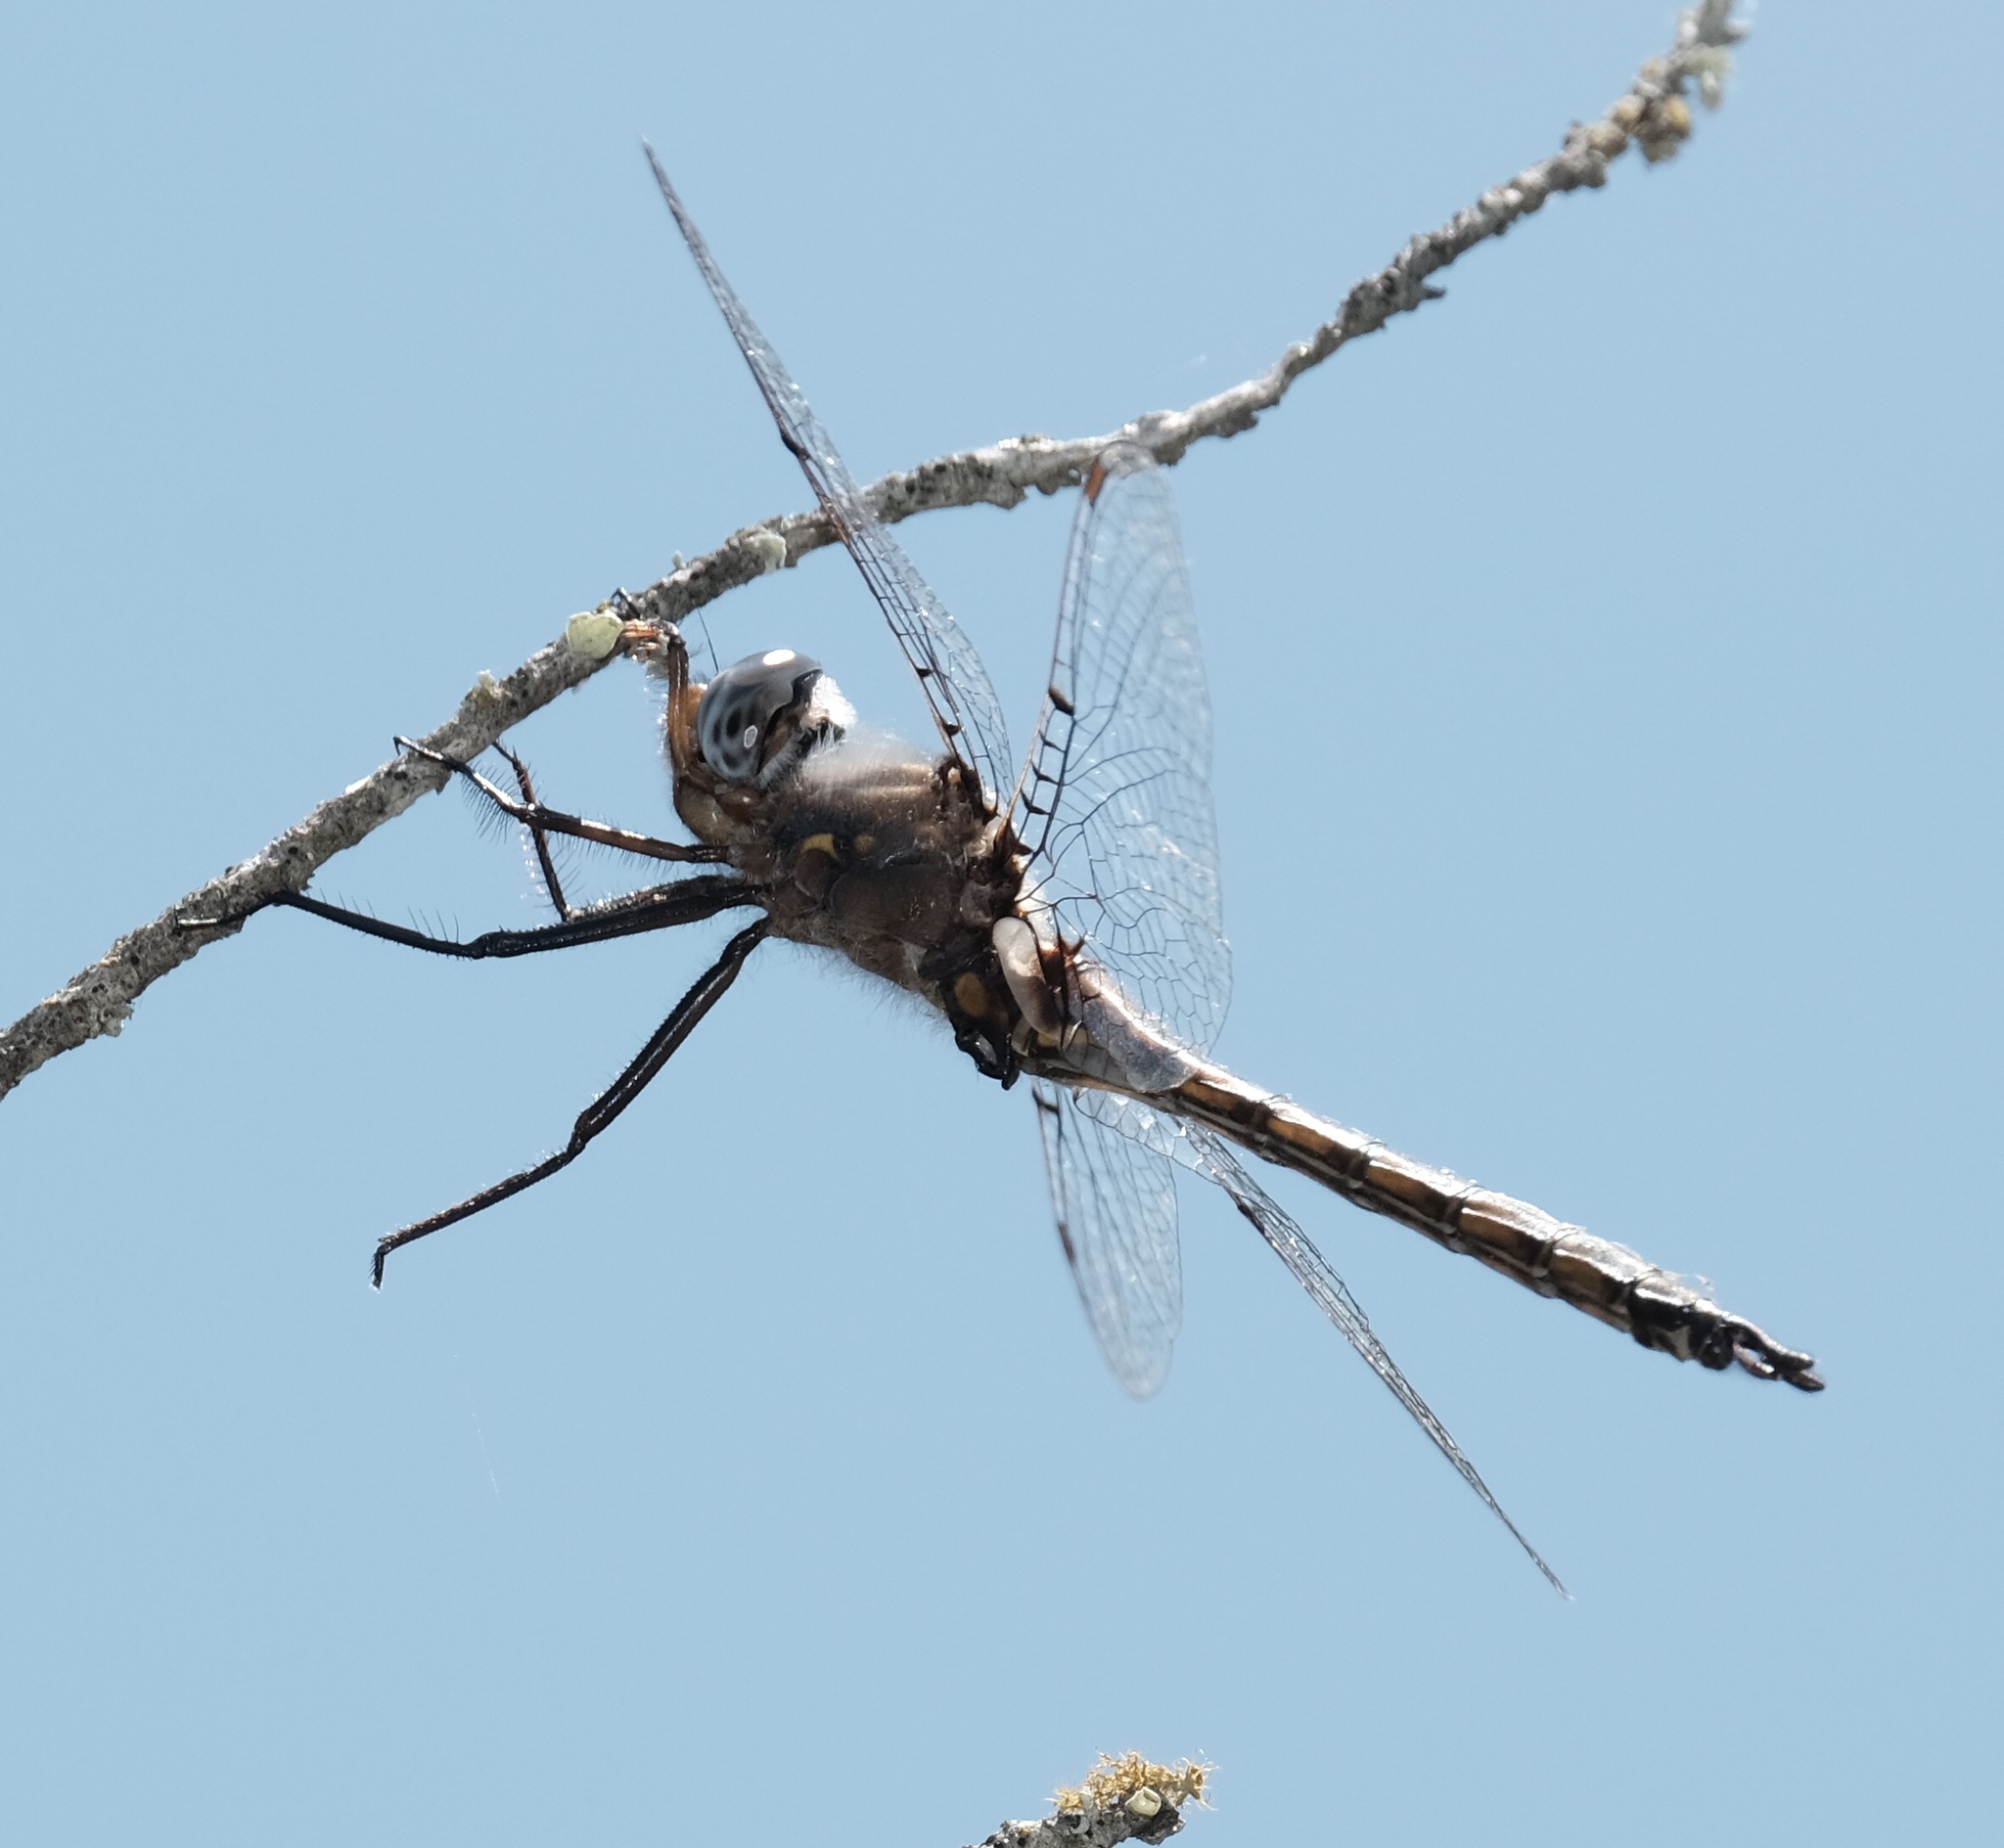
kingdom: Animalia
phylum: Arthropoda
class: Insecta
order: Odonata
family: Corduliidae
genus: Epitheca
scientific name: Epitheca petechialis
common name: Dot-winged baskettail
